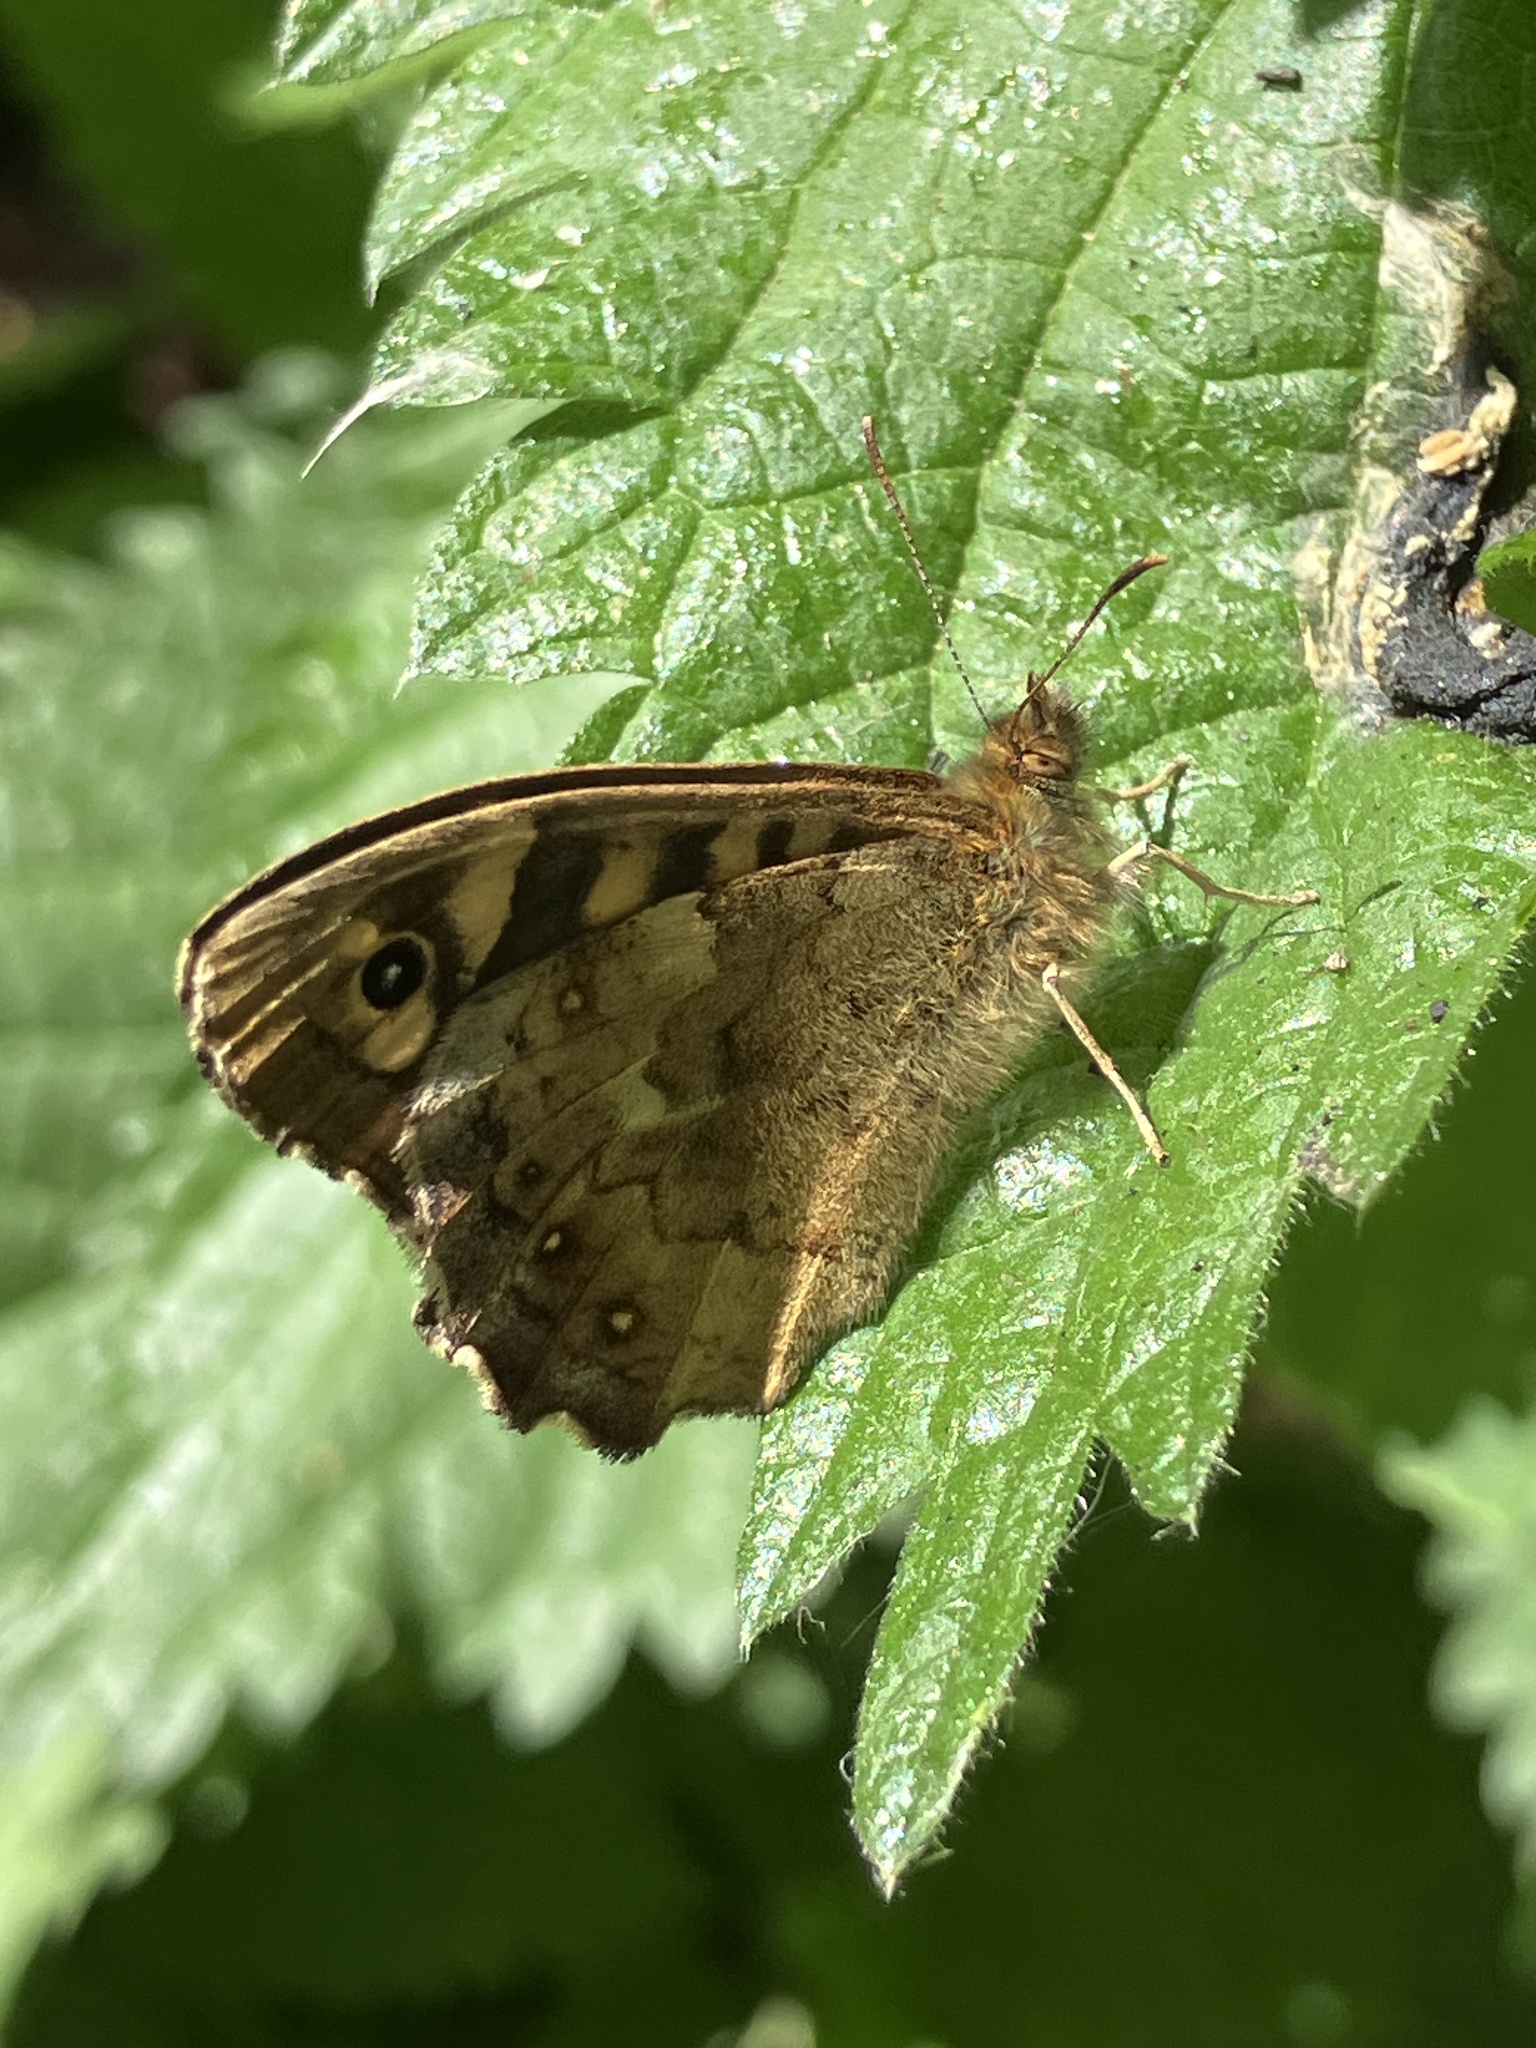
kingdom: Animalia
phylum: Arthropoda
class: Insecta
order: Lepidoptera
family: Nymphalidae
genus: Pararge
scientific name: Pararge aegeria
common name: Speckled wood
